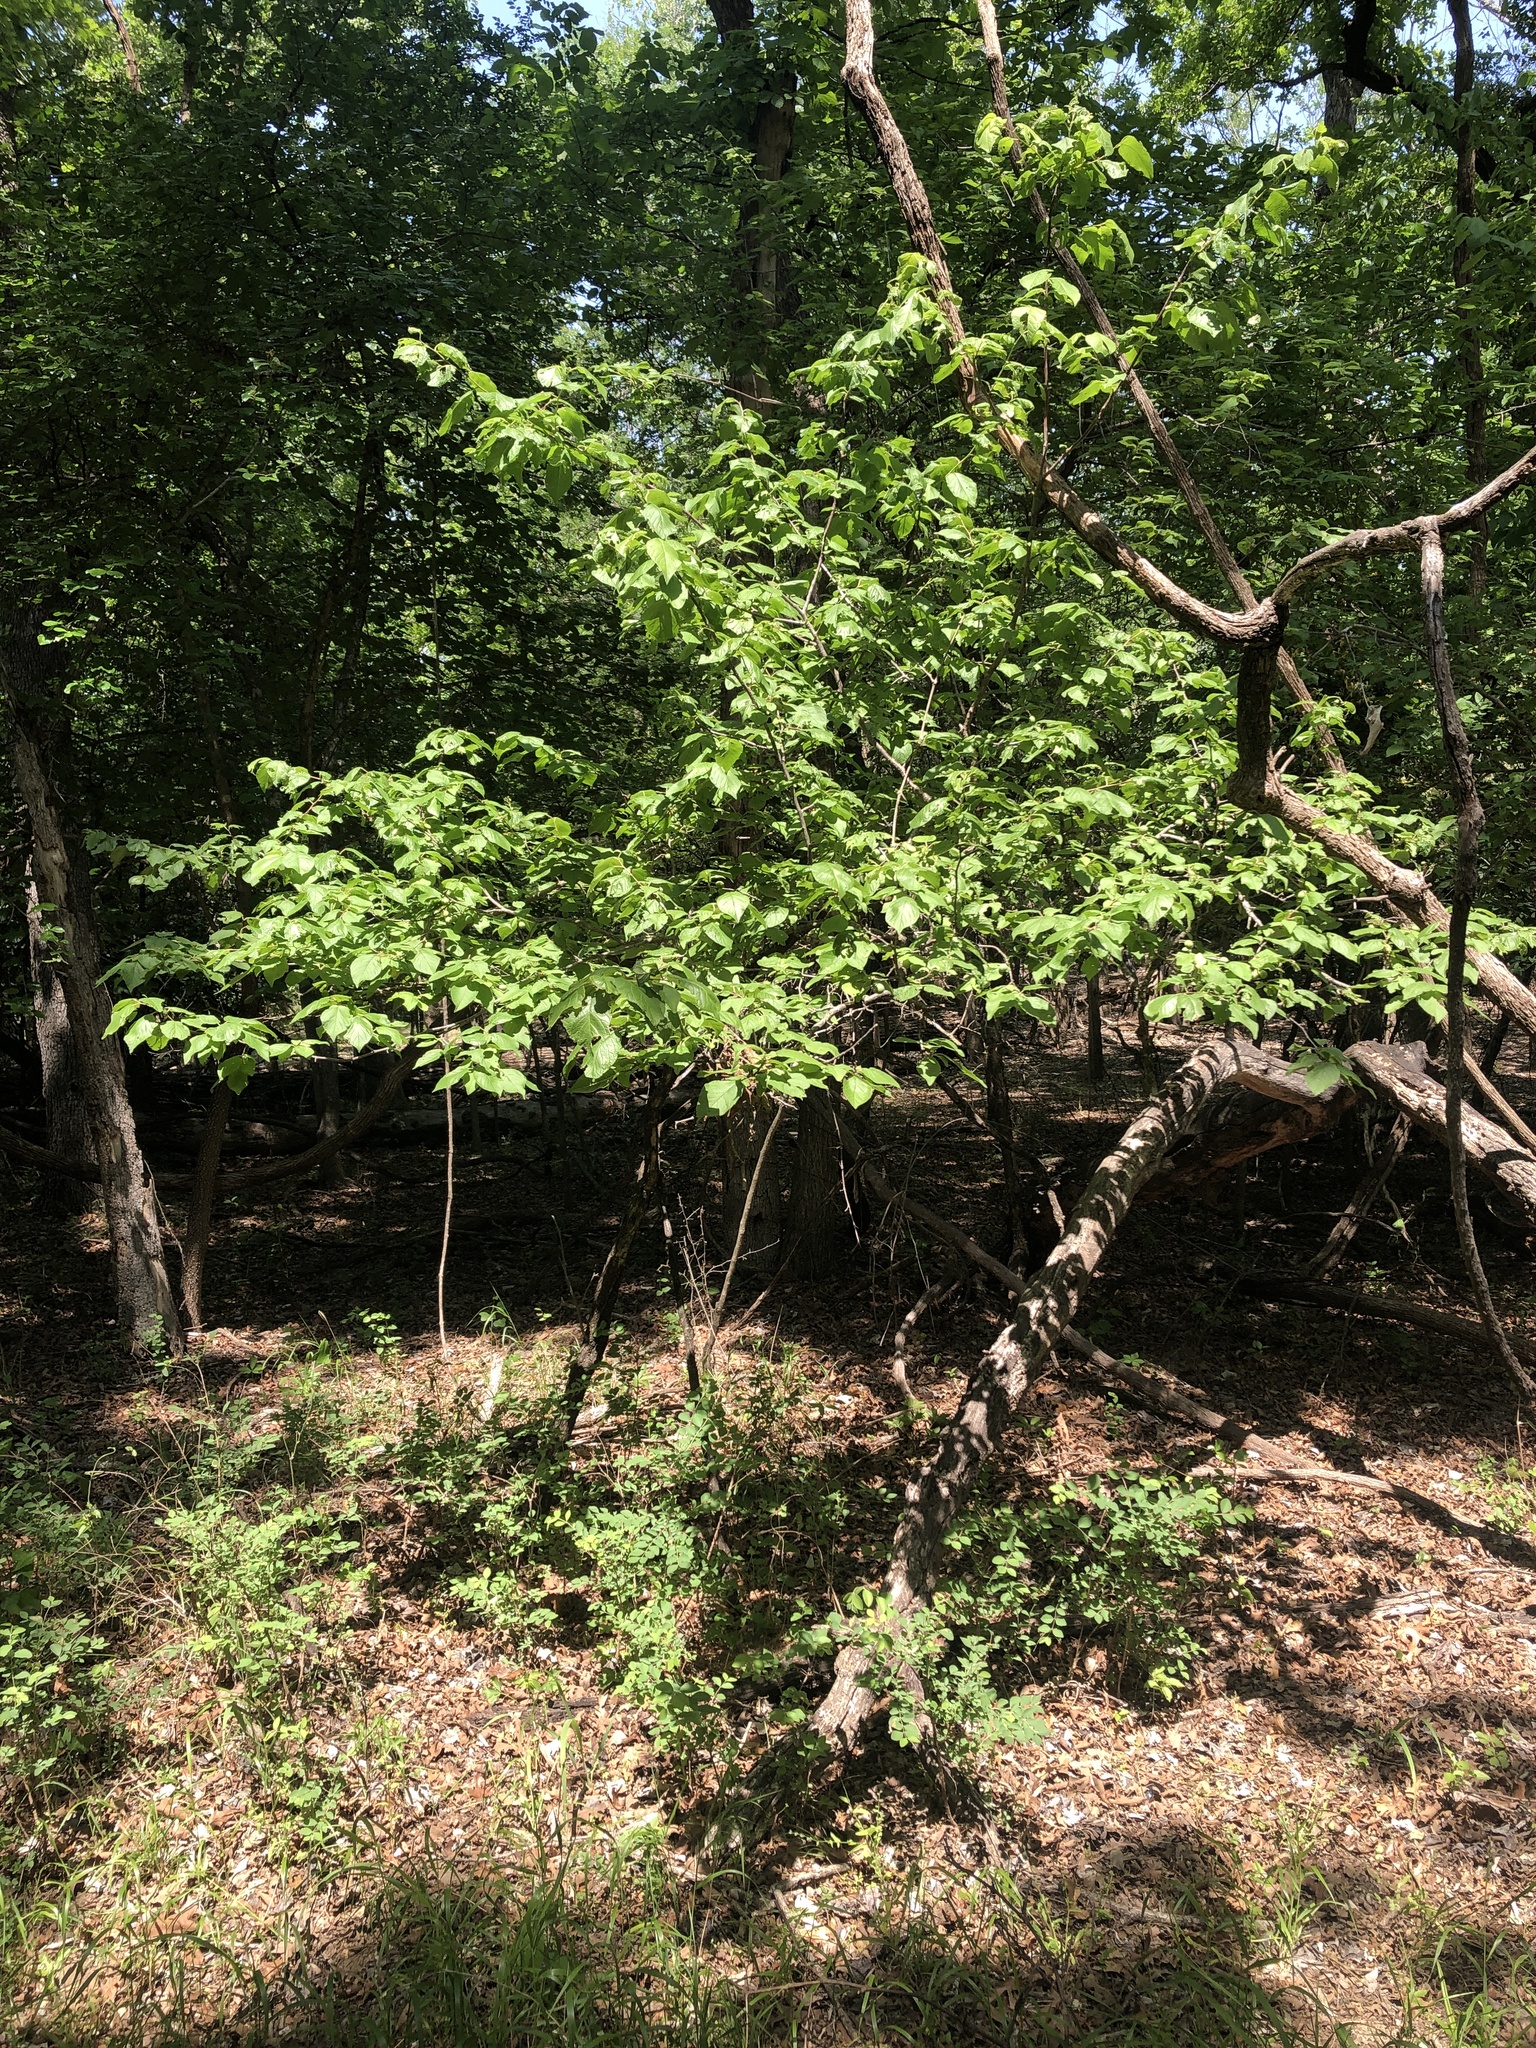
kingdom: Plantae
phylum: Tracheophyta
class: Magnoliopsida
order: Rosales
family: Rosaceae
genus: Prunus
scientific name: Prunus mexicana
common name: Mexican plum
